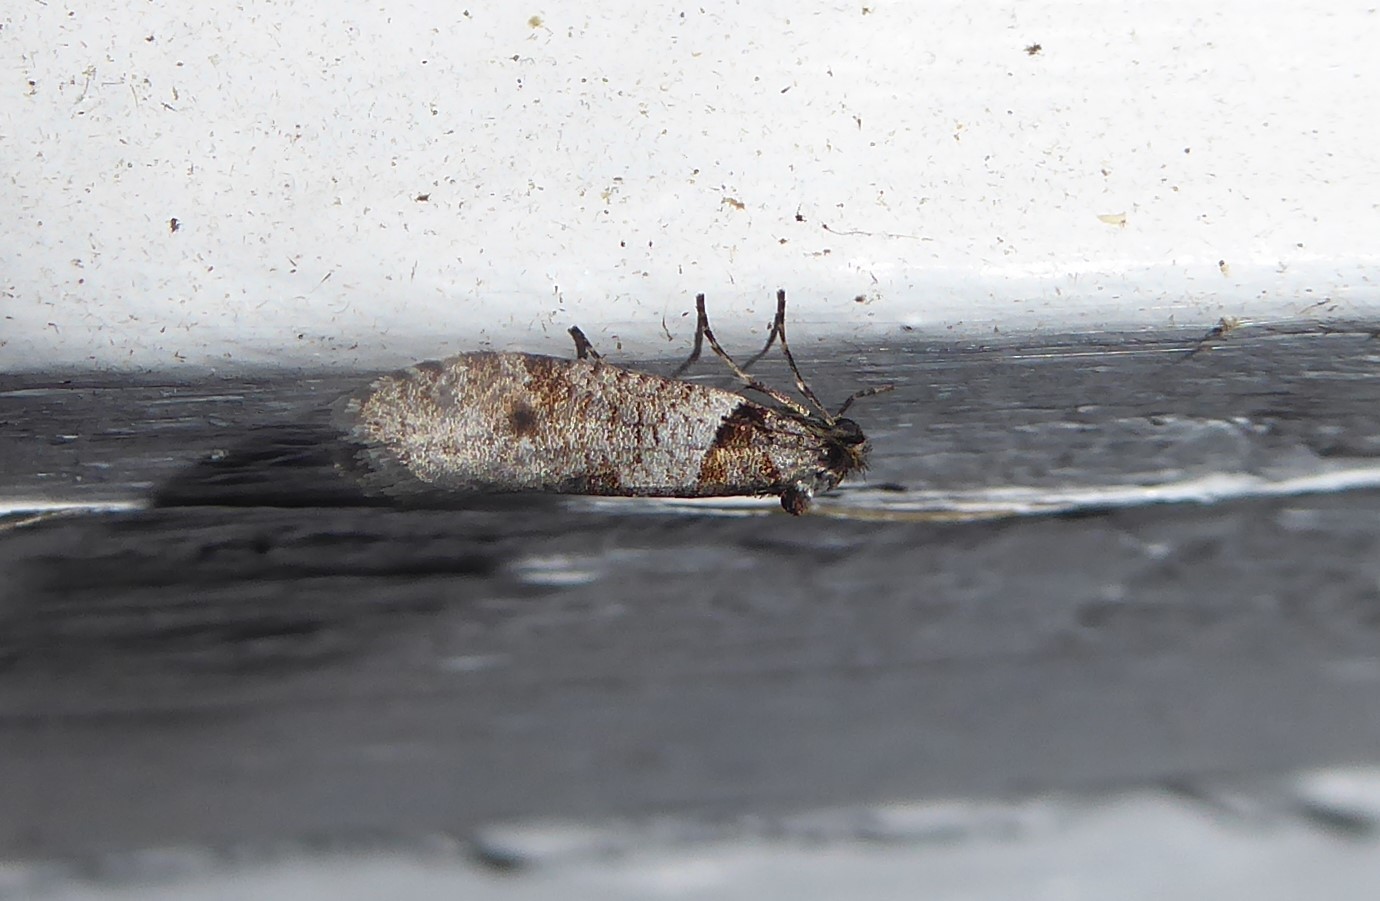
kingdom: Animalia
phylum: Arthropoda
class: Insecta
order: Lepidoptera
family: Psychidae
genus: Lepidoscia
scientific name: Lepidoscia heliochares
